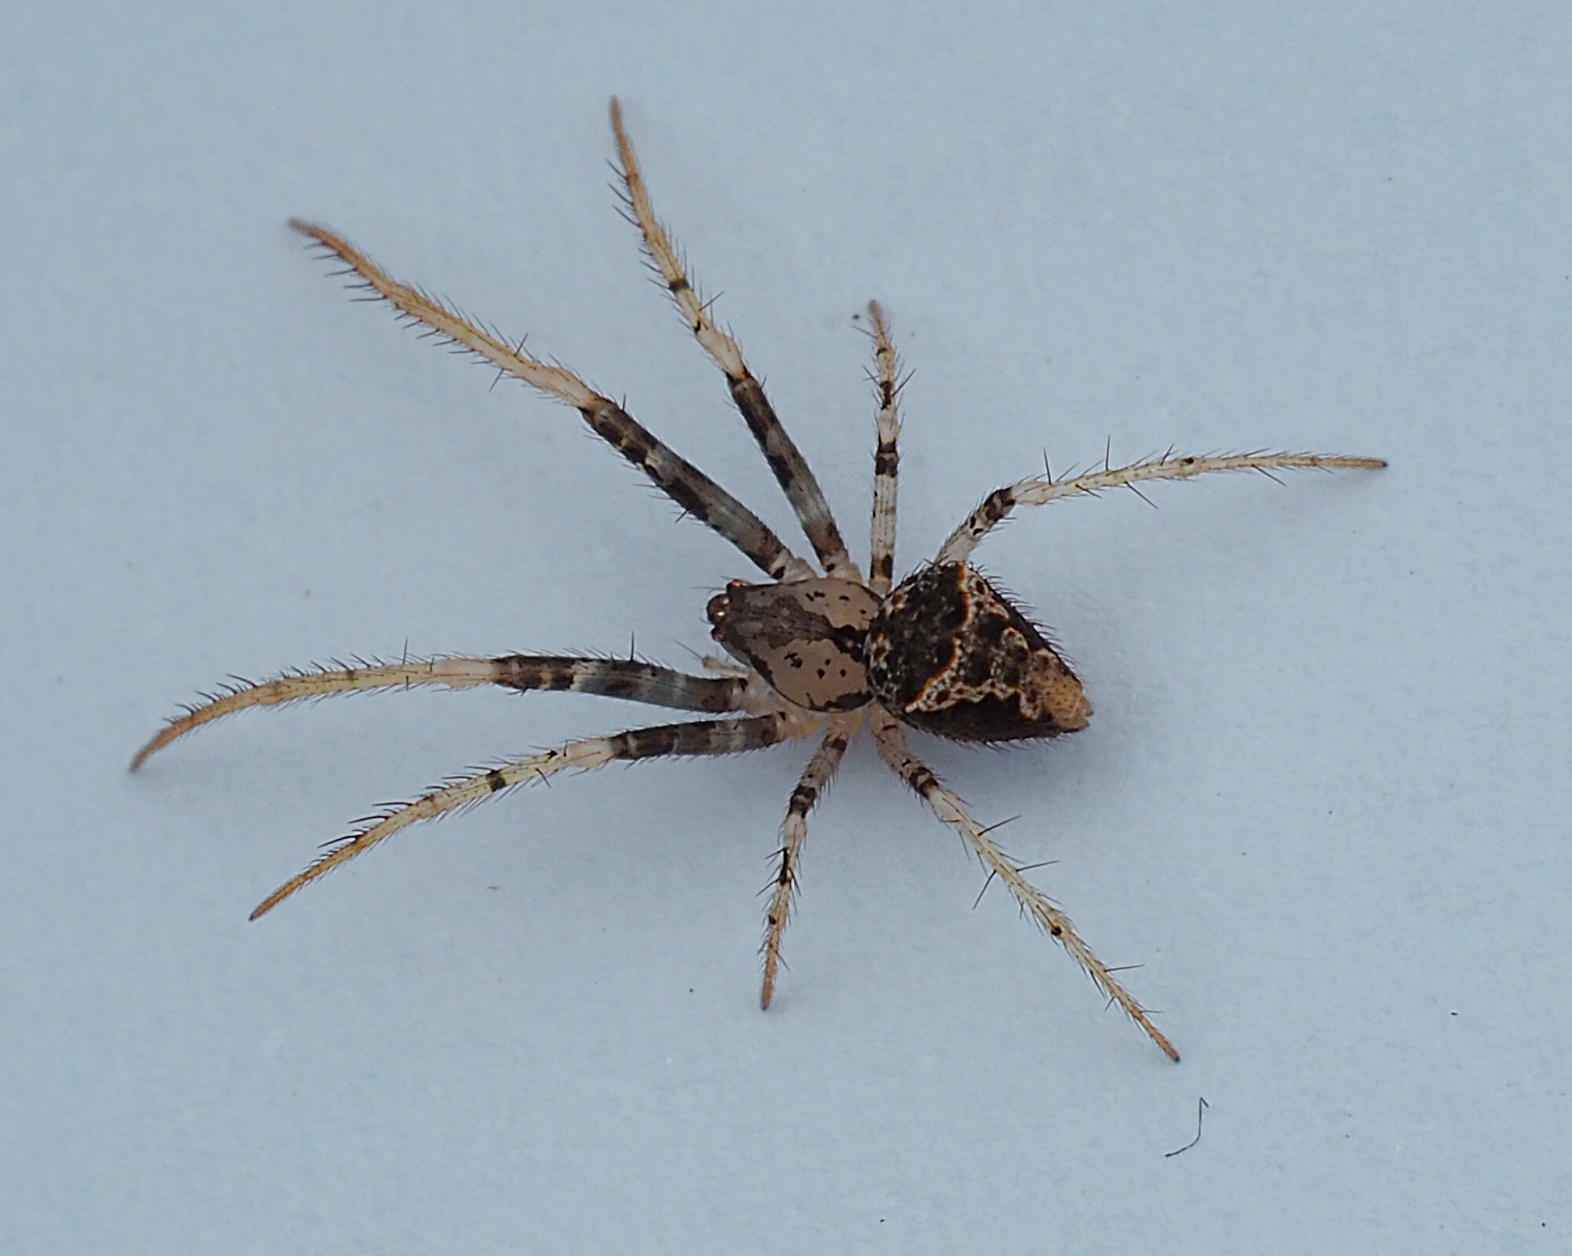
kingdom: Animalia
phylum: Arthropoda
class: Arachnida
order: Araneae
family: Mimetidae
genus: Australomimetus
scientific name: Australomimetus hartleyensis
